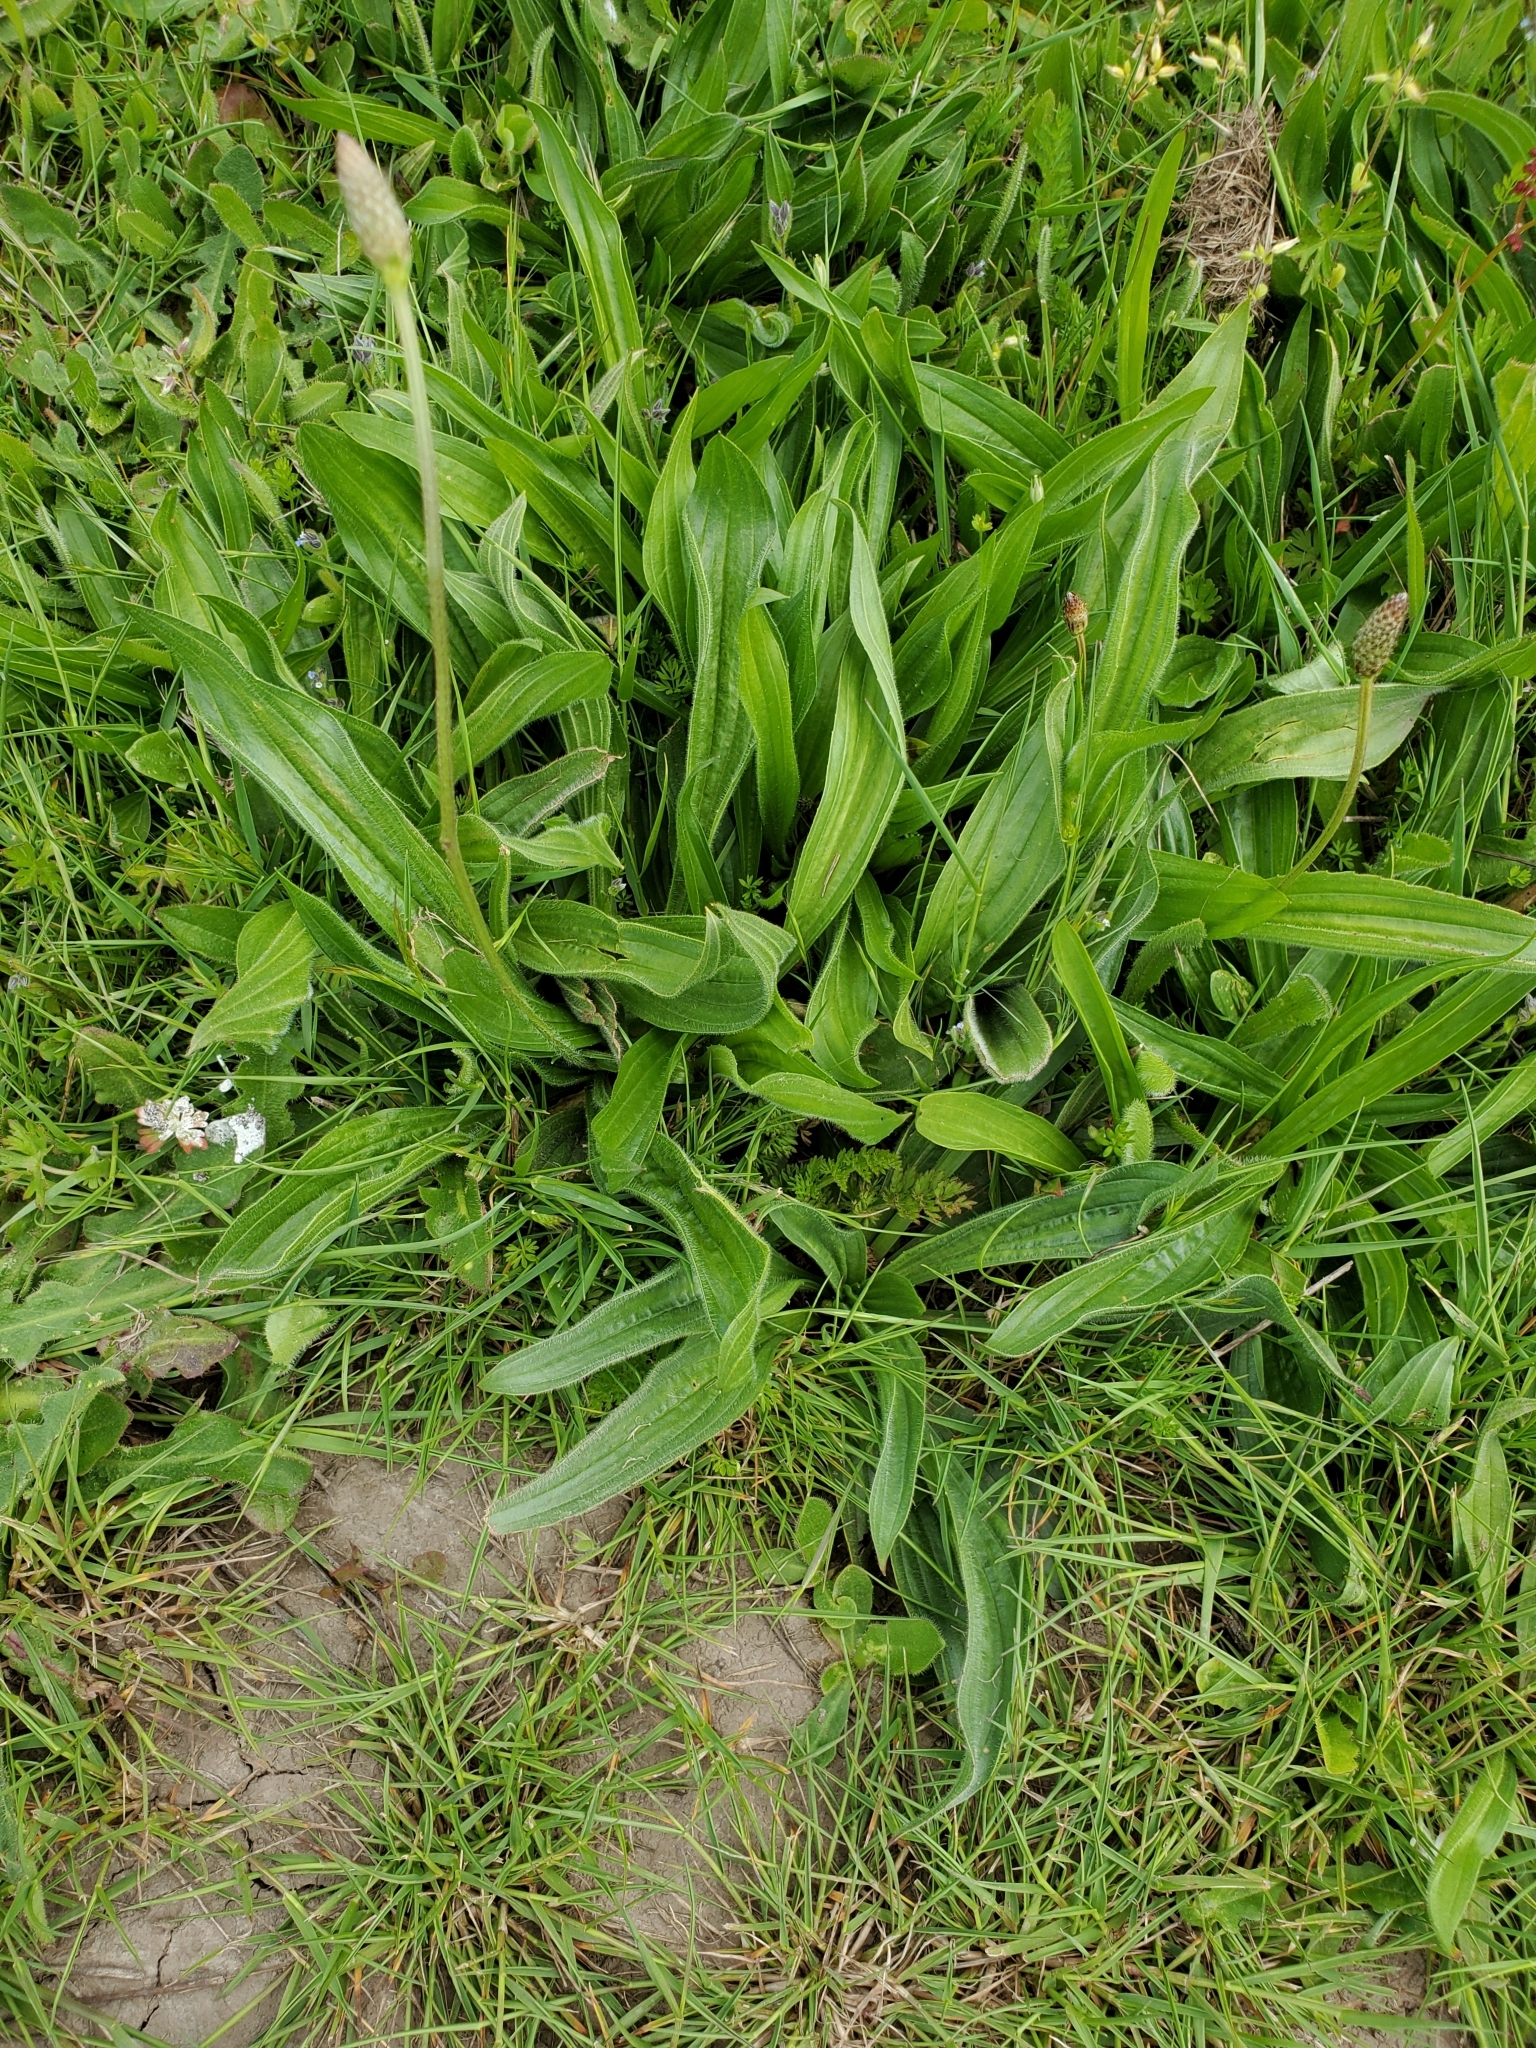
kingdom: Plantae
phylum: Tracheophyta
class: Magnoliopsida
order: Lamiales
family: Plantaginaceae
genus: Plantago
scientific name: Plantago lanceolata
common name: Ribwort plantain
